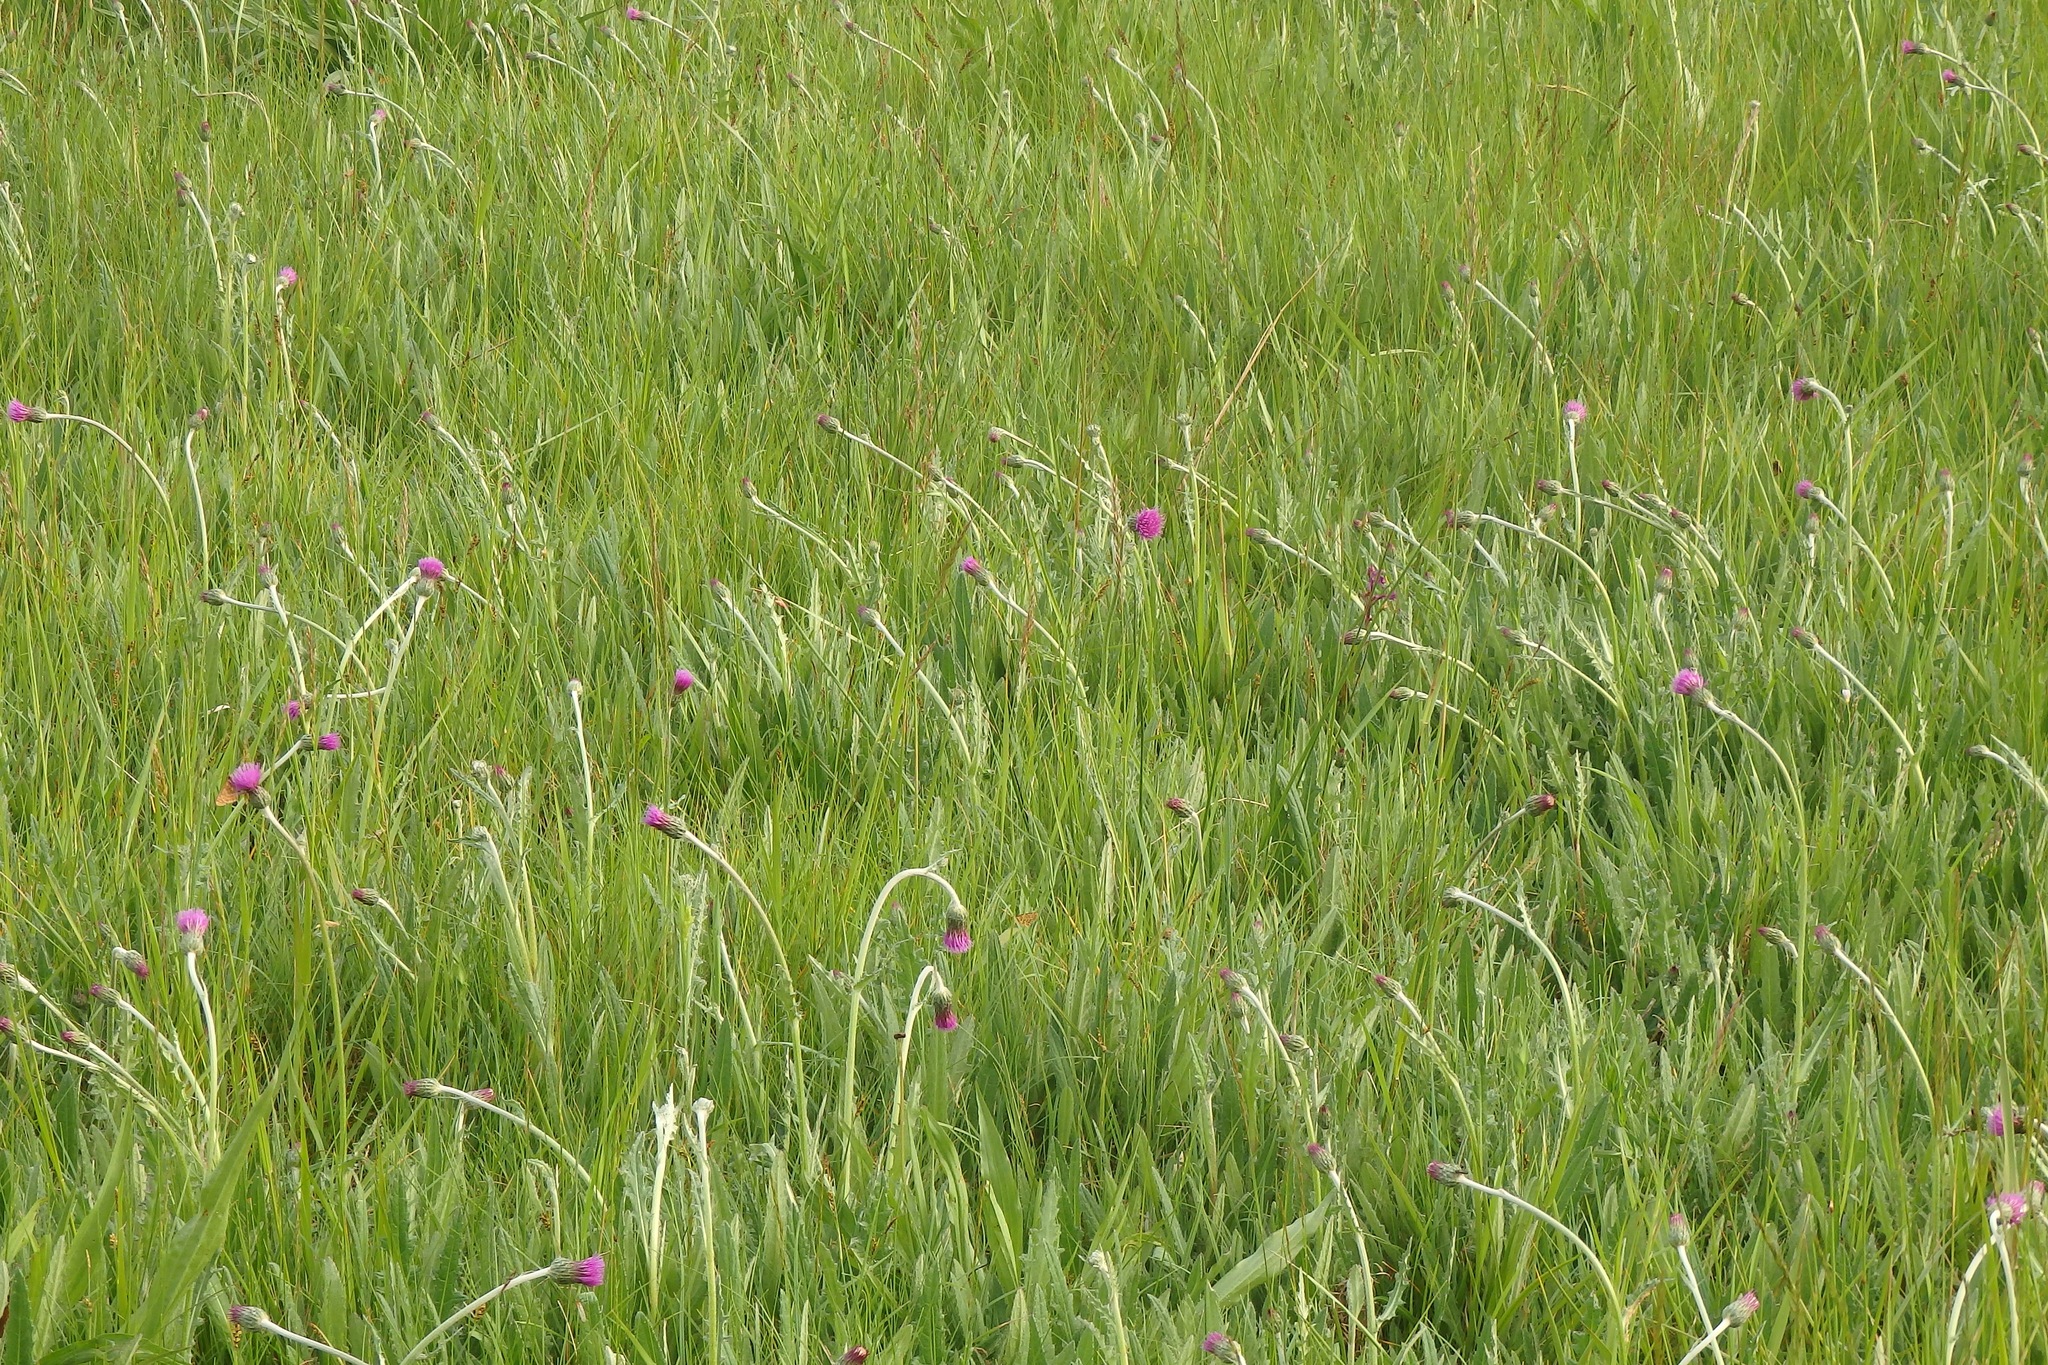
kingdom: Plantae
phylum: Tracheophyta
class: Magnoliopsida
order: Asterales
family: Asteraceae
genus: Cirsium
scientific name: Cirsium dissectum
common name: Meadow thistle
